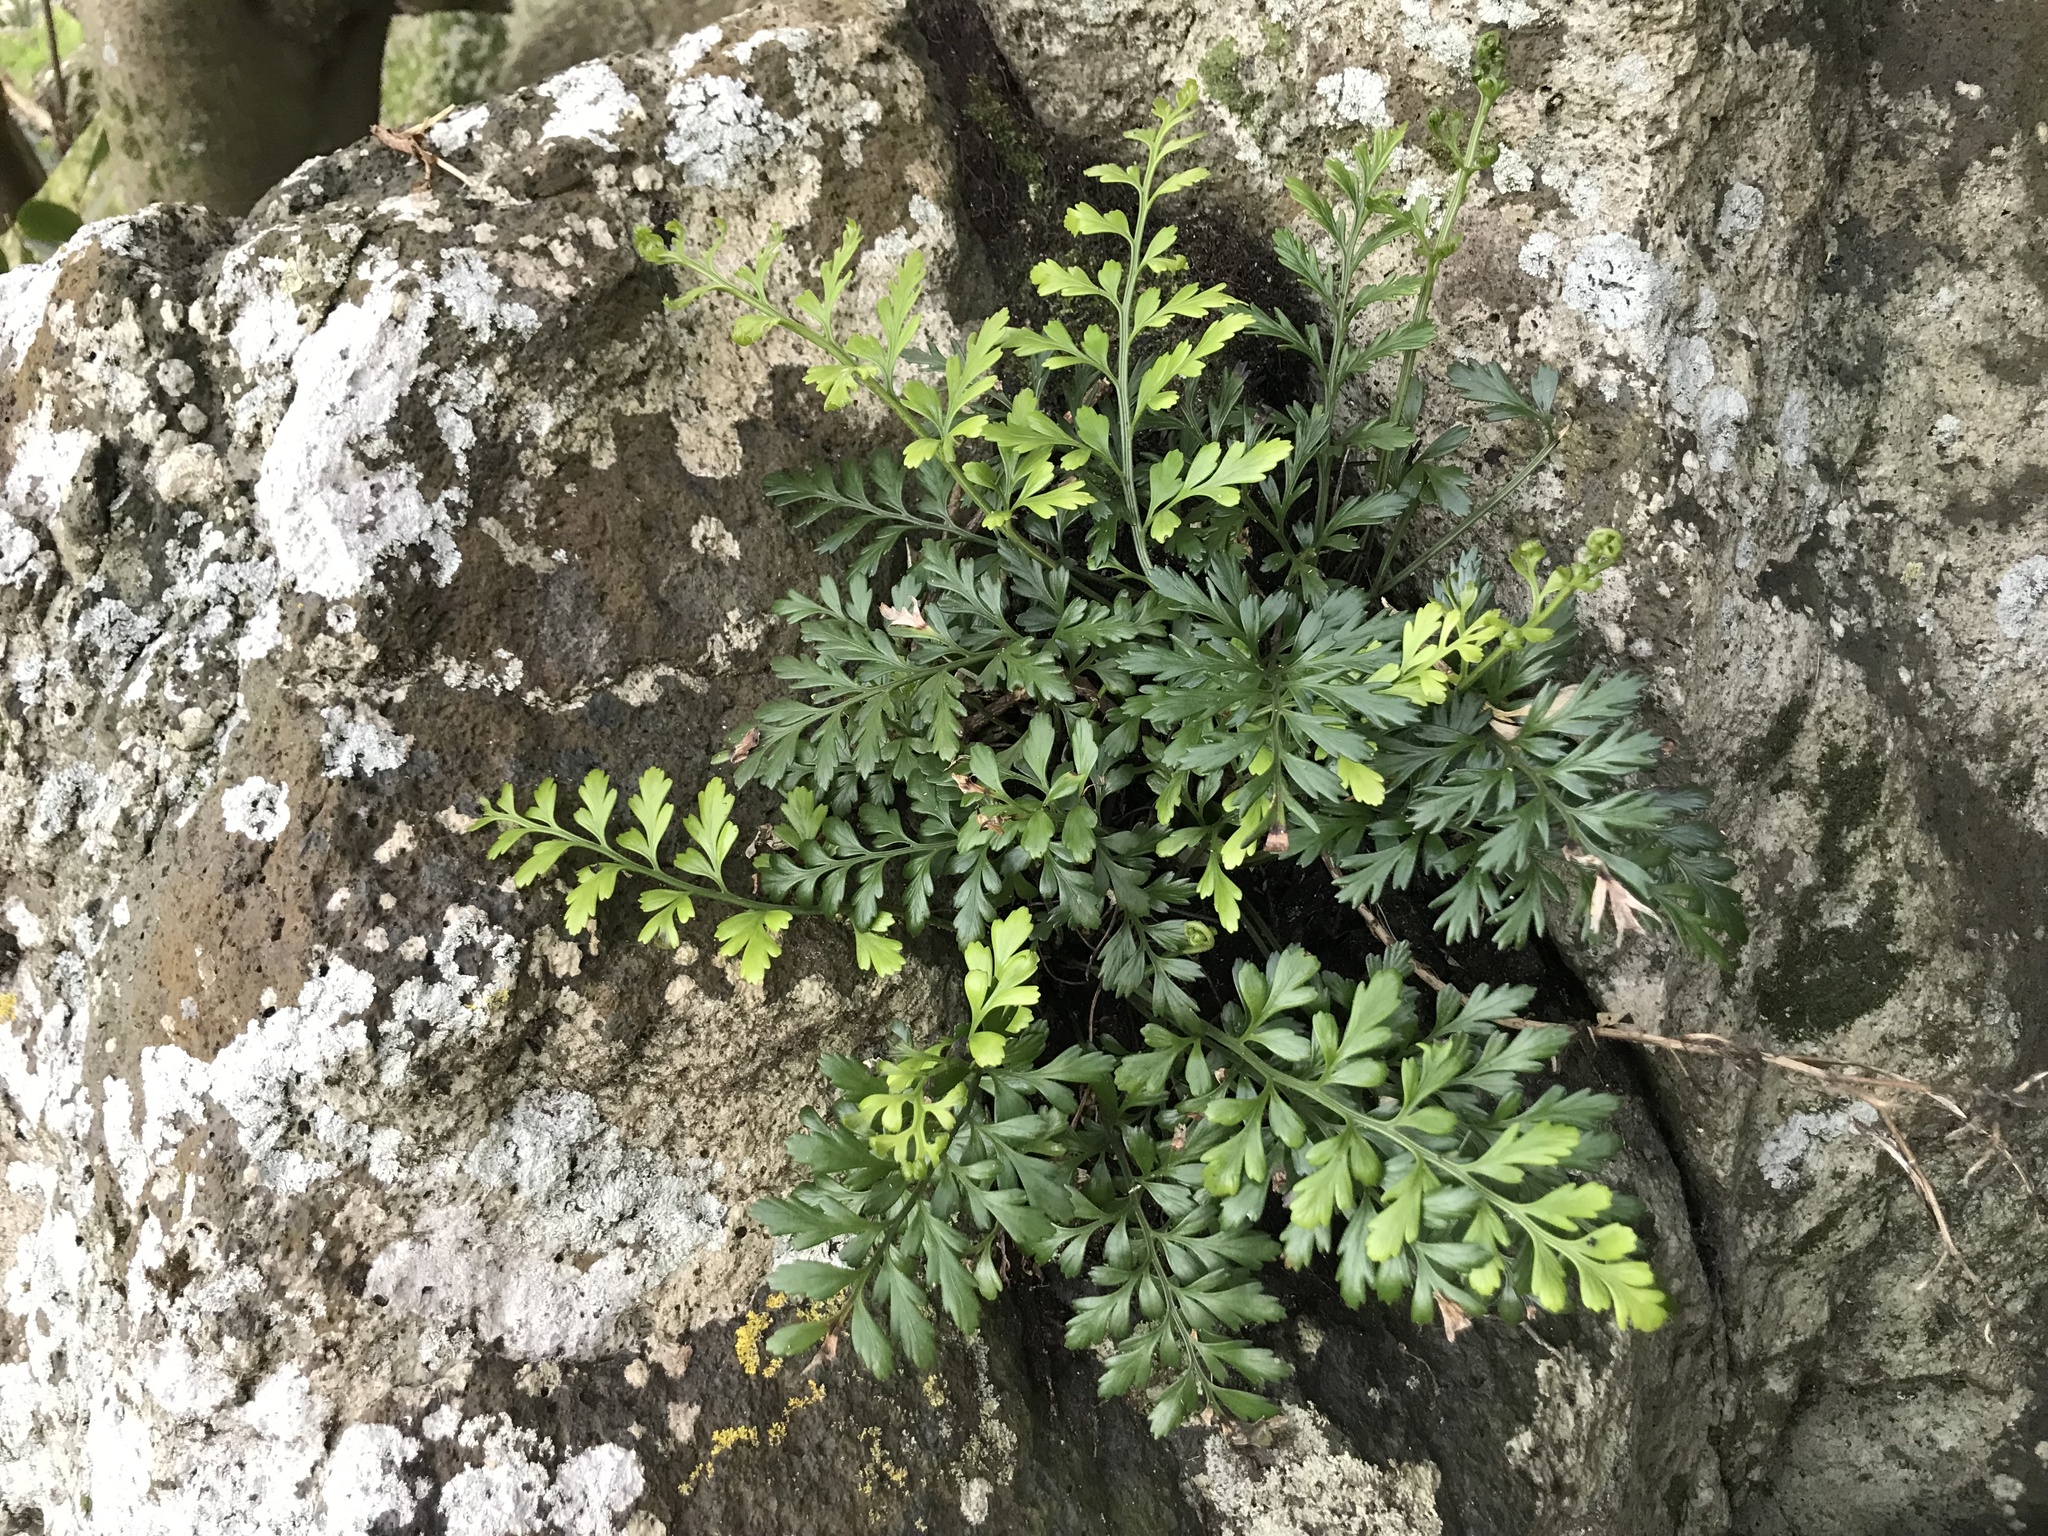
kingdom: Plantae
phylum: Tracheophyta
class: Polypodiopsida
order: Polypodiales
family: Aspleniaceae
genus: Asplenium
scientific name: Asplenium chathamense
